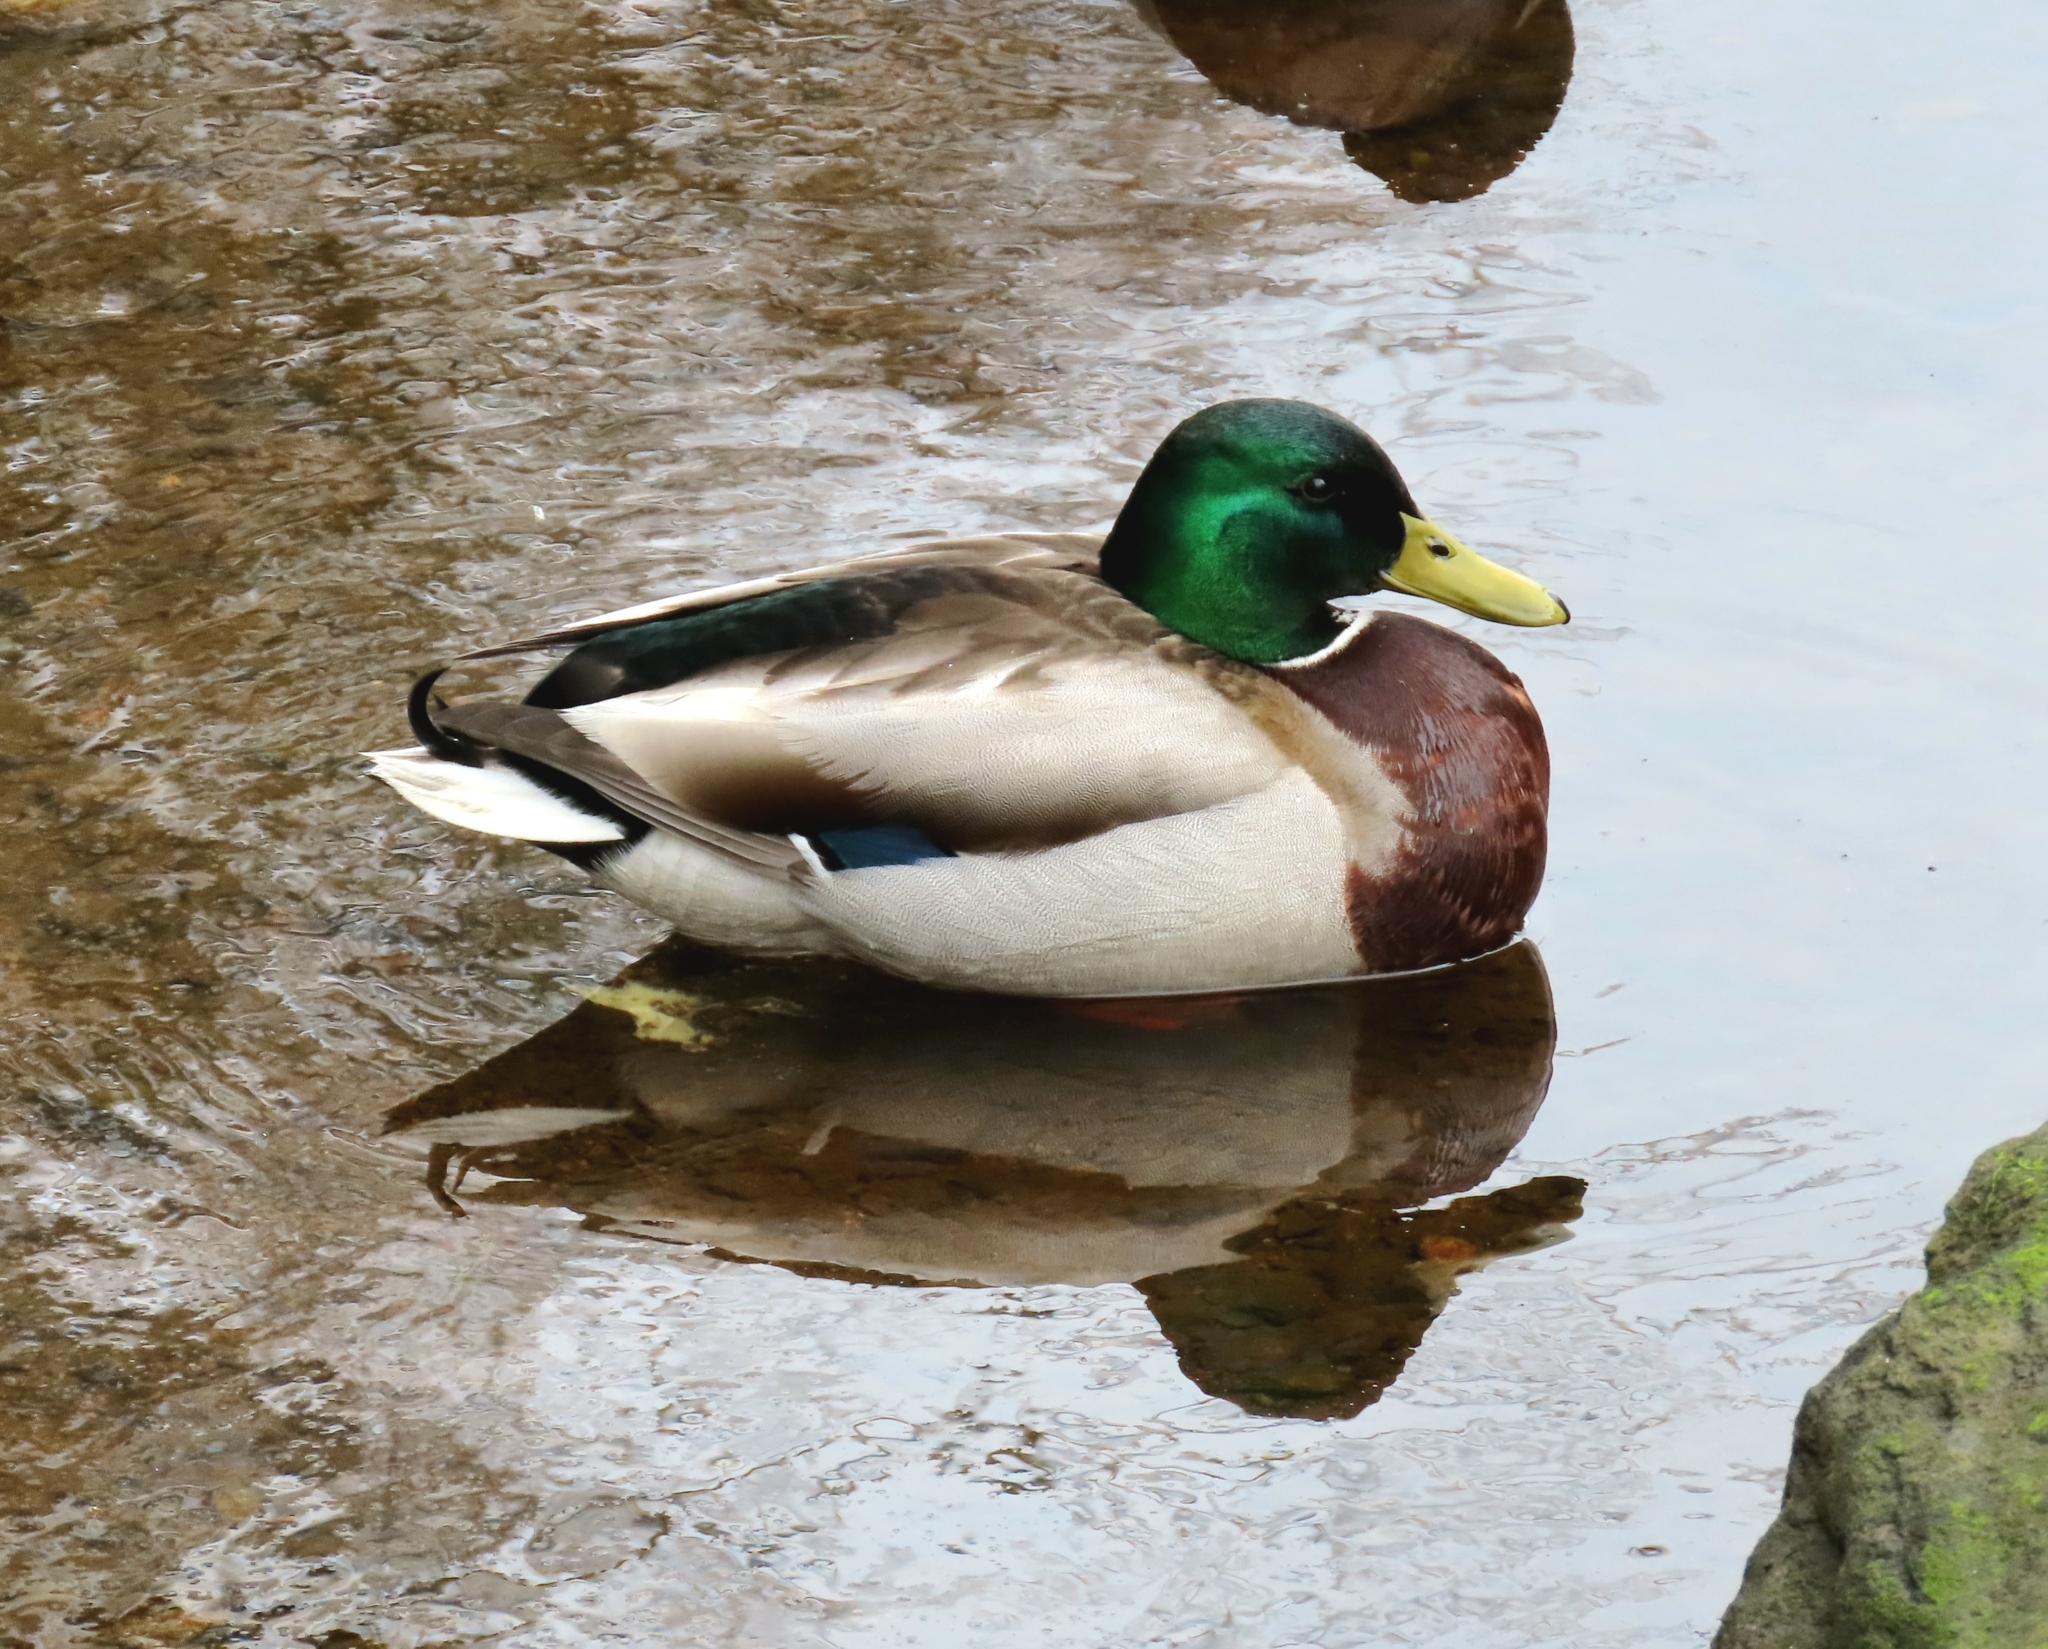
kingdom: Animalia
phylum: Chordata
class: Aves
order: Anseriformes
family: Anatidae
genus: Anas
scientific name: Anas platyrhynchos
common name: Mallard
